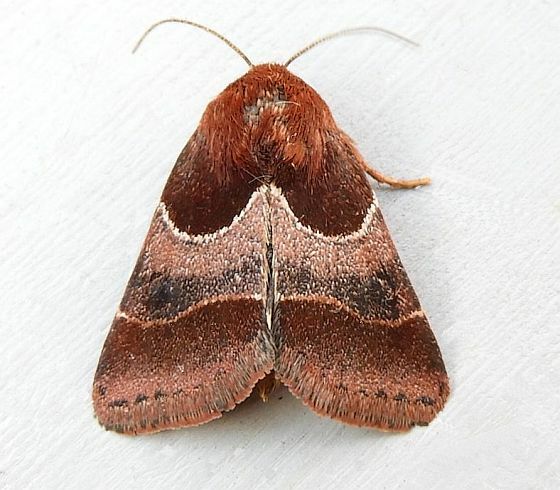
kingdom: Animalia
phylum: Arthropoda
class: Insecta
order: Lepidoptera
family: Noctuidae
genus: Schinia
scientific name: Schinia arcigera
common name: Arcigera flower moth
